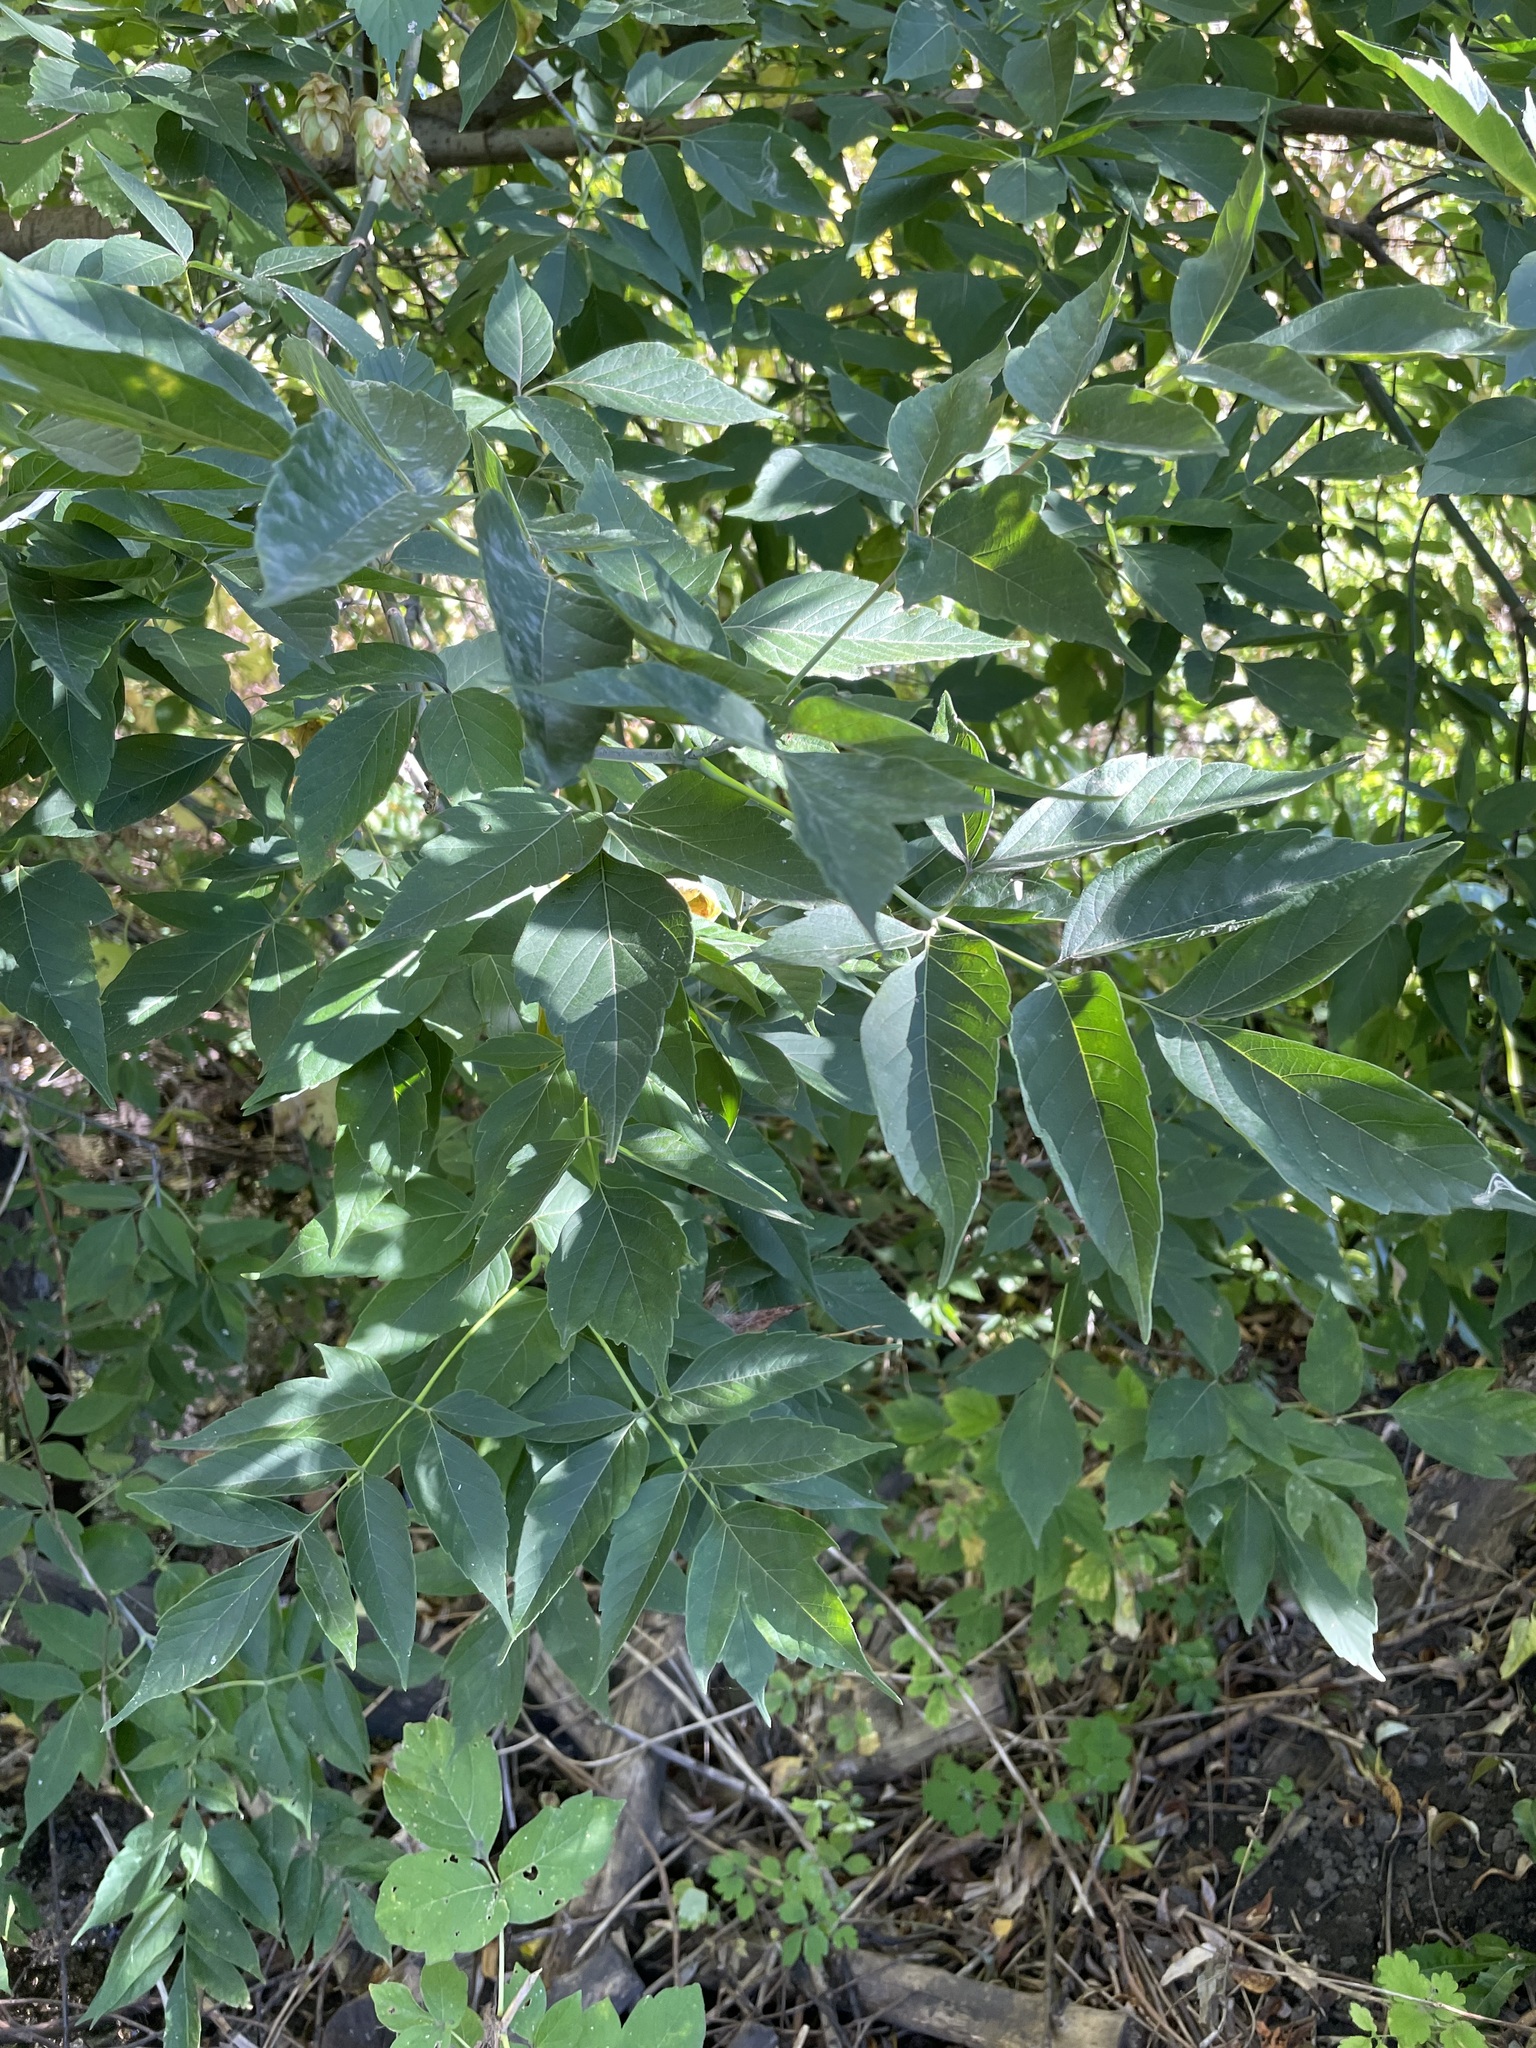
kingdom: Plantae
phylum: Tracheophyta
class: Magnoliopsida
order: Sapindales
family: Sapindaceae
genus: Acer
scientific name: Acer negundo
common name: Ashleaf maple
